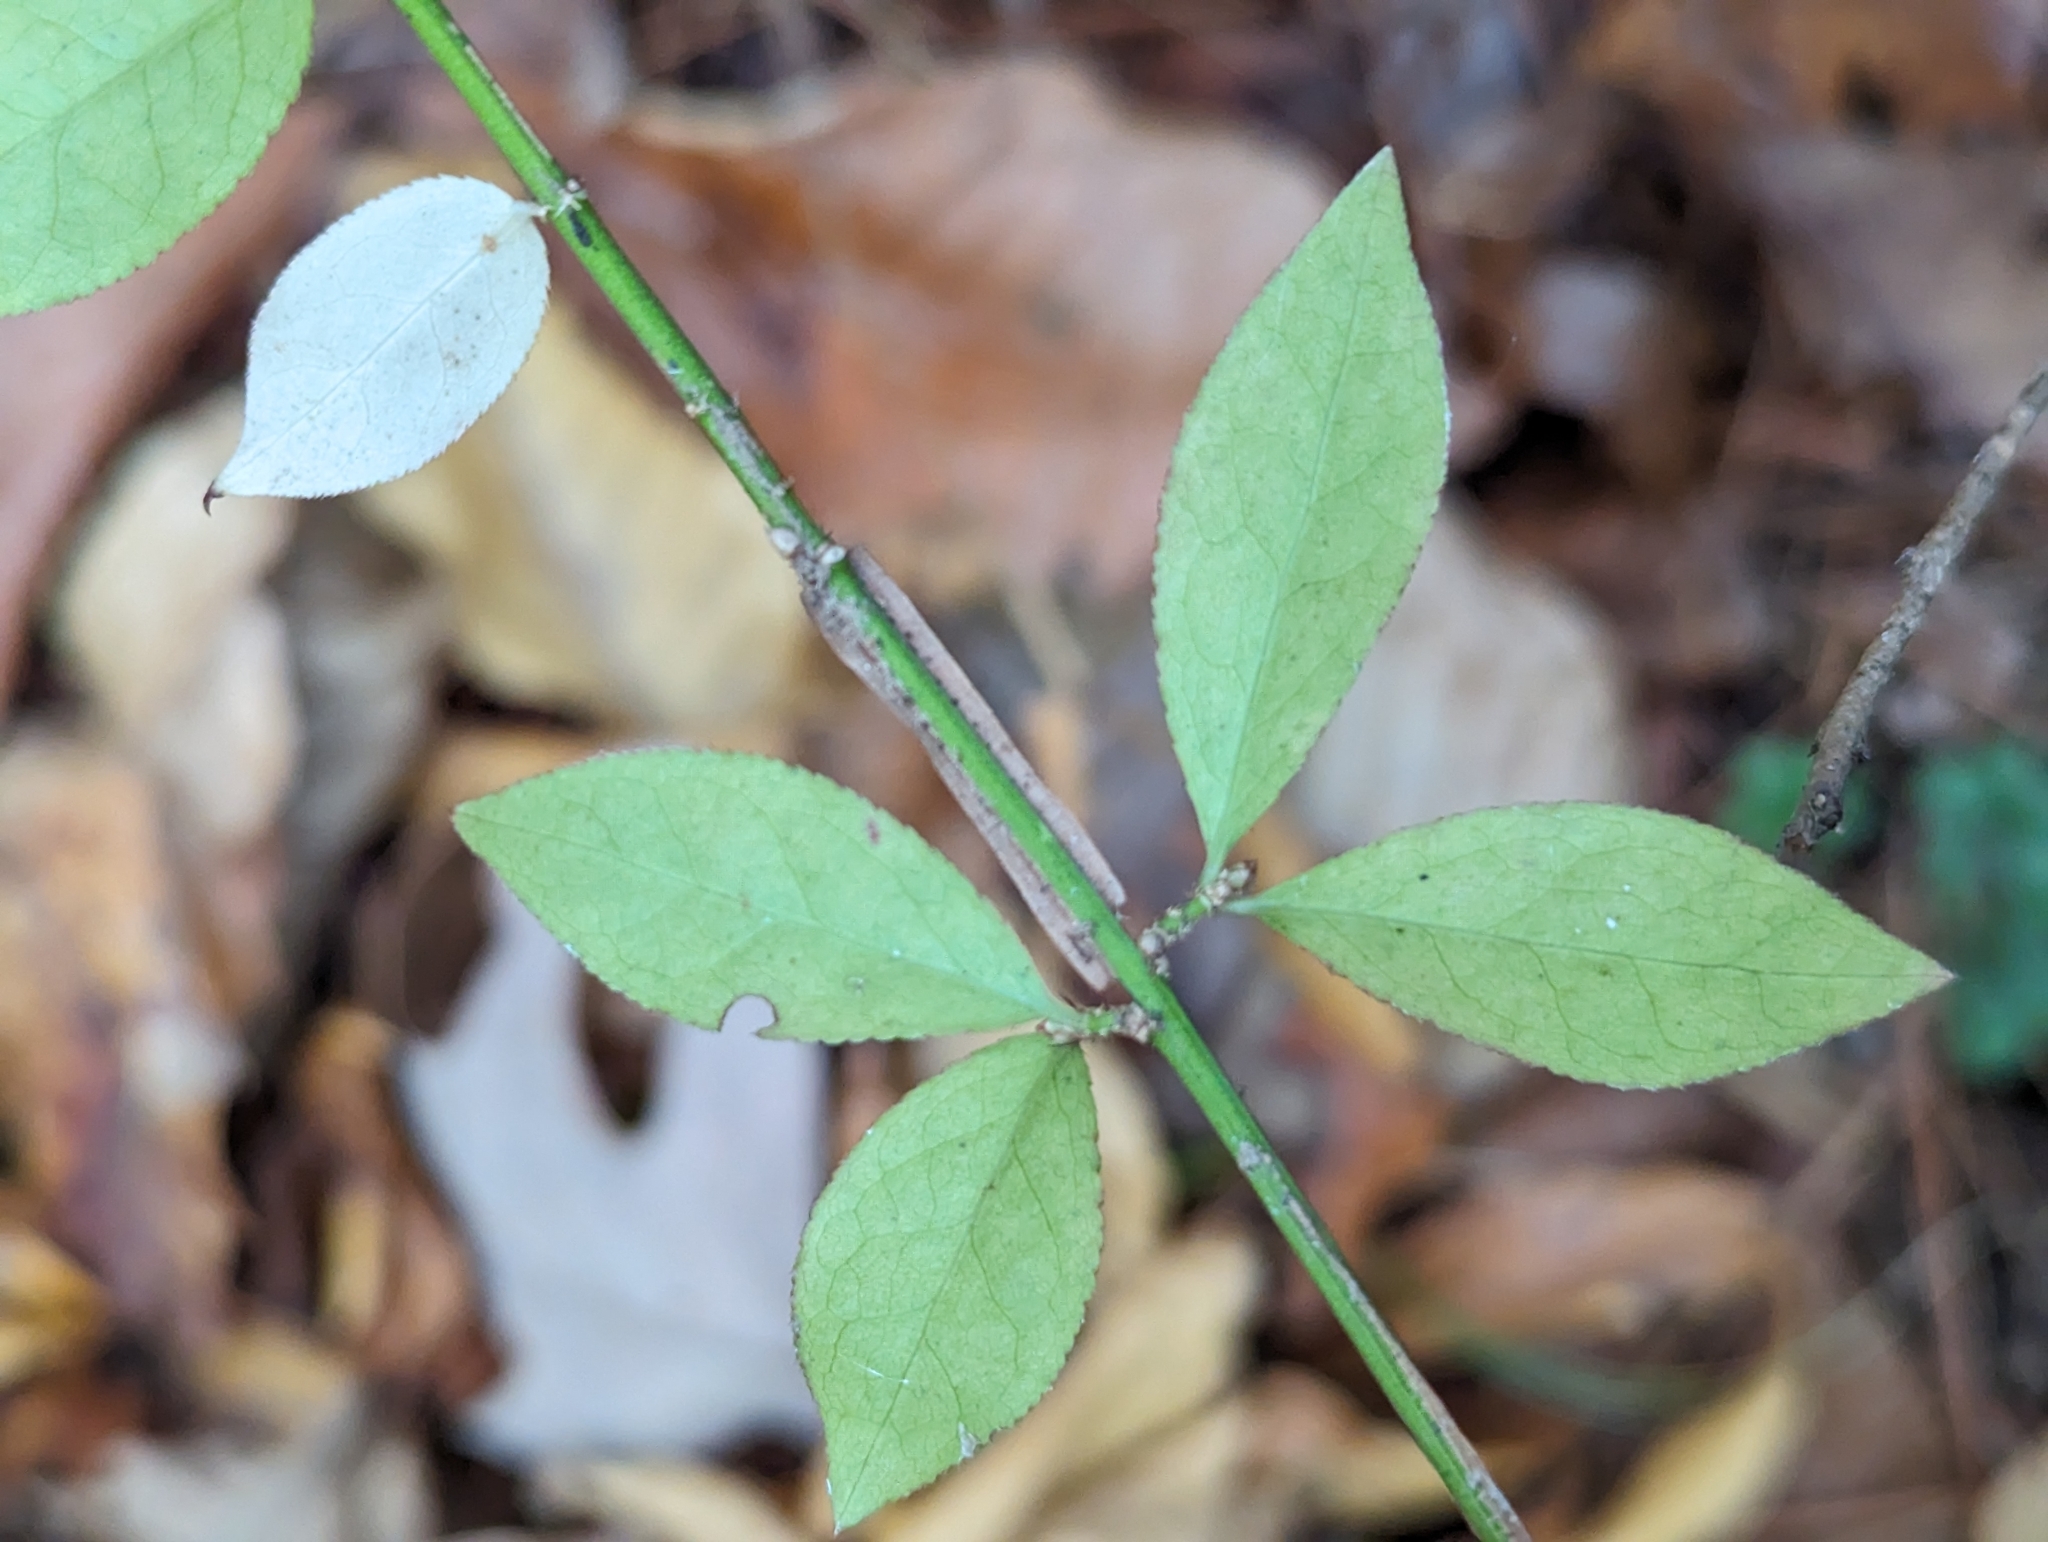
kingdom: Plantae
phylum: Tracheophyta
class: Magnoliopsida
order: Celastrales
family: Celastraceae
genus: Euonymus
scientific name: Euonymus alatus
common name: Winged euonymus
